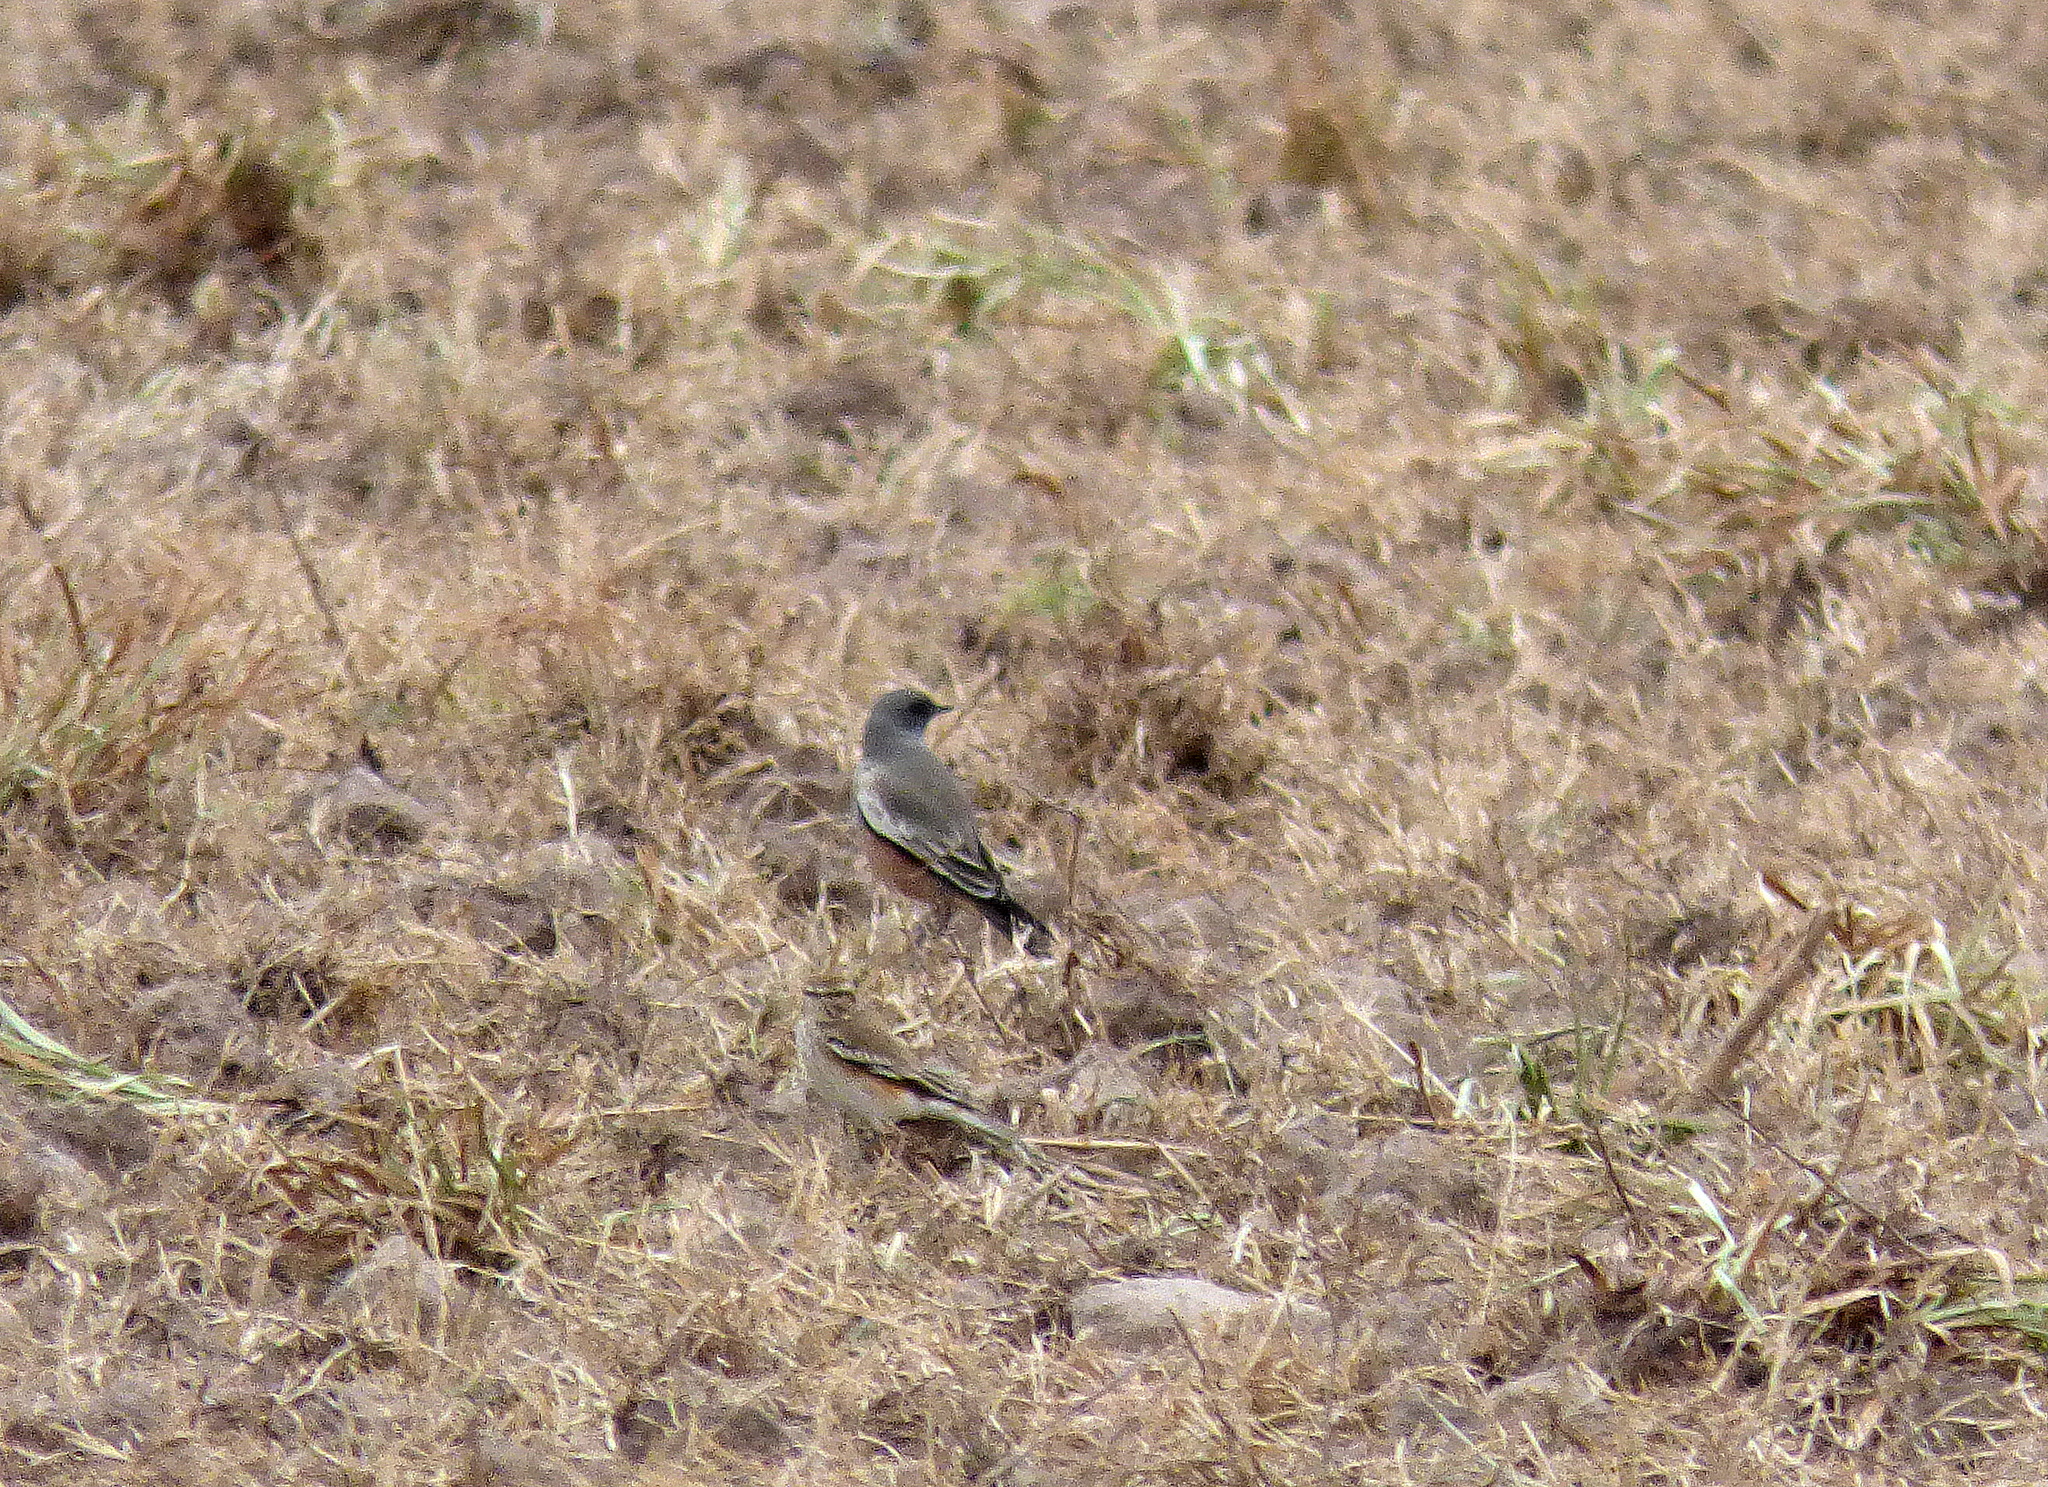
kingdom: Animalia
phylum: Chordata
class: Aves
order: Passeriformes
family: Tyrannidae
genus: Neoxolmis
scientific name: Neoxolmis rufiventris
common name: Chocolate-vented tyrant
